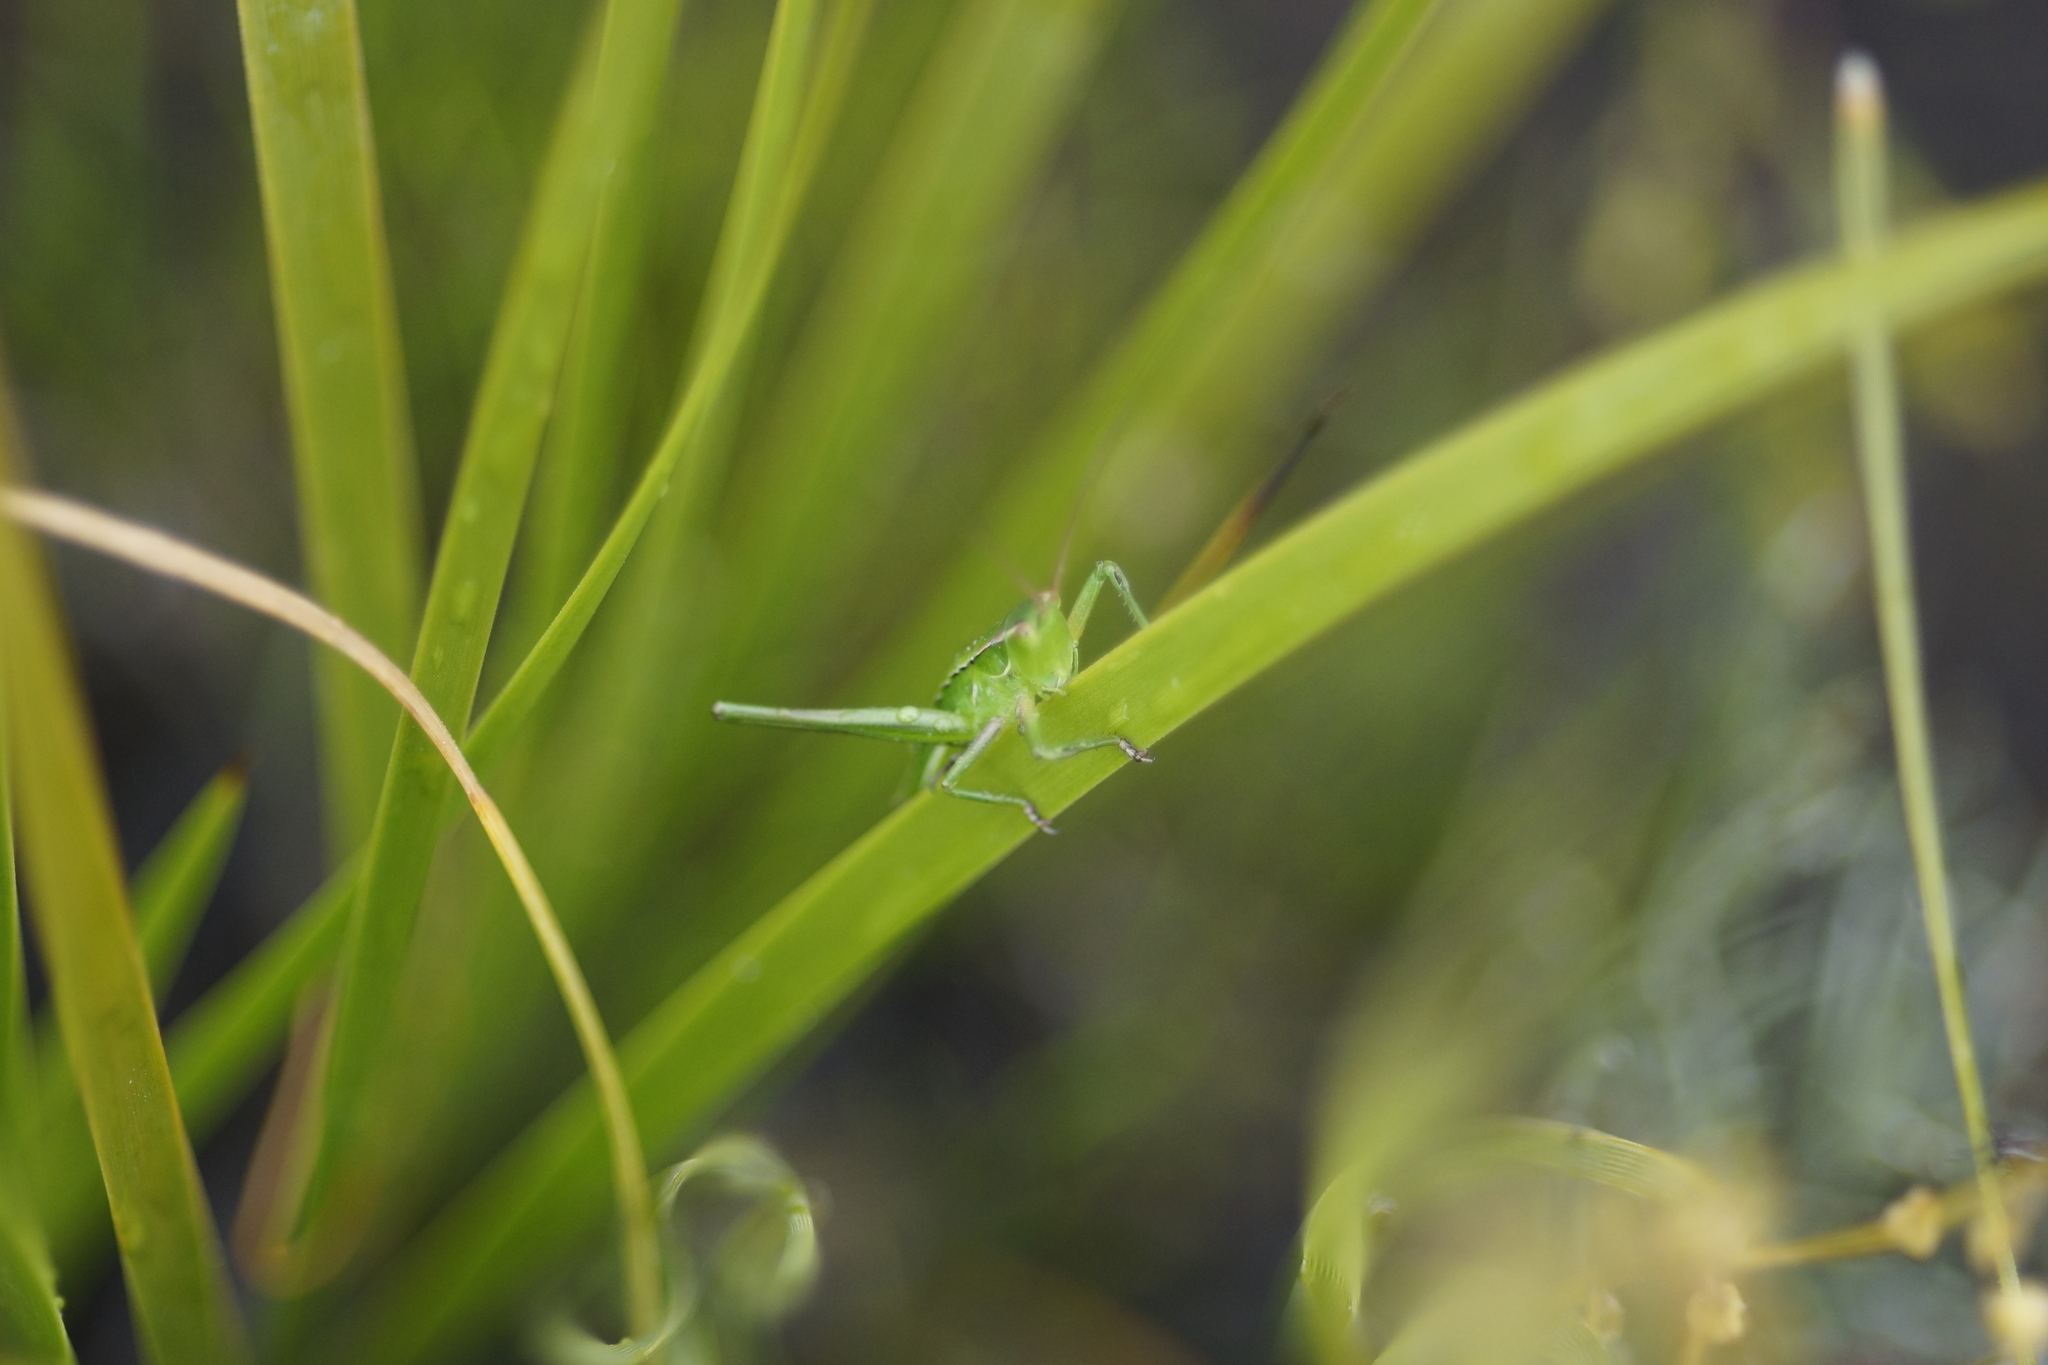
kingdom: Animalia
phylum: Arthropoda
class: Insecta
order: Orthoptera
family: Tettigoniidae
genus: Metaballus
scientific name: Metaballus sagaeformis
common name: Adelaide marauding katydid
